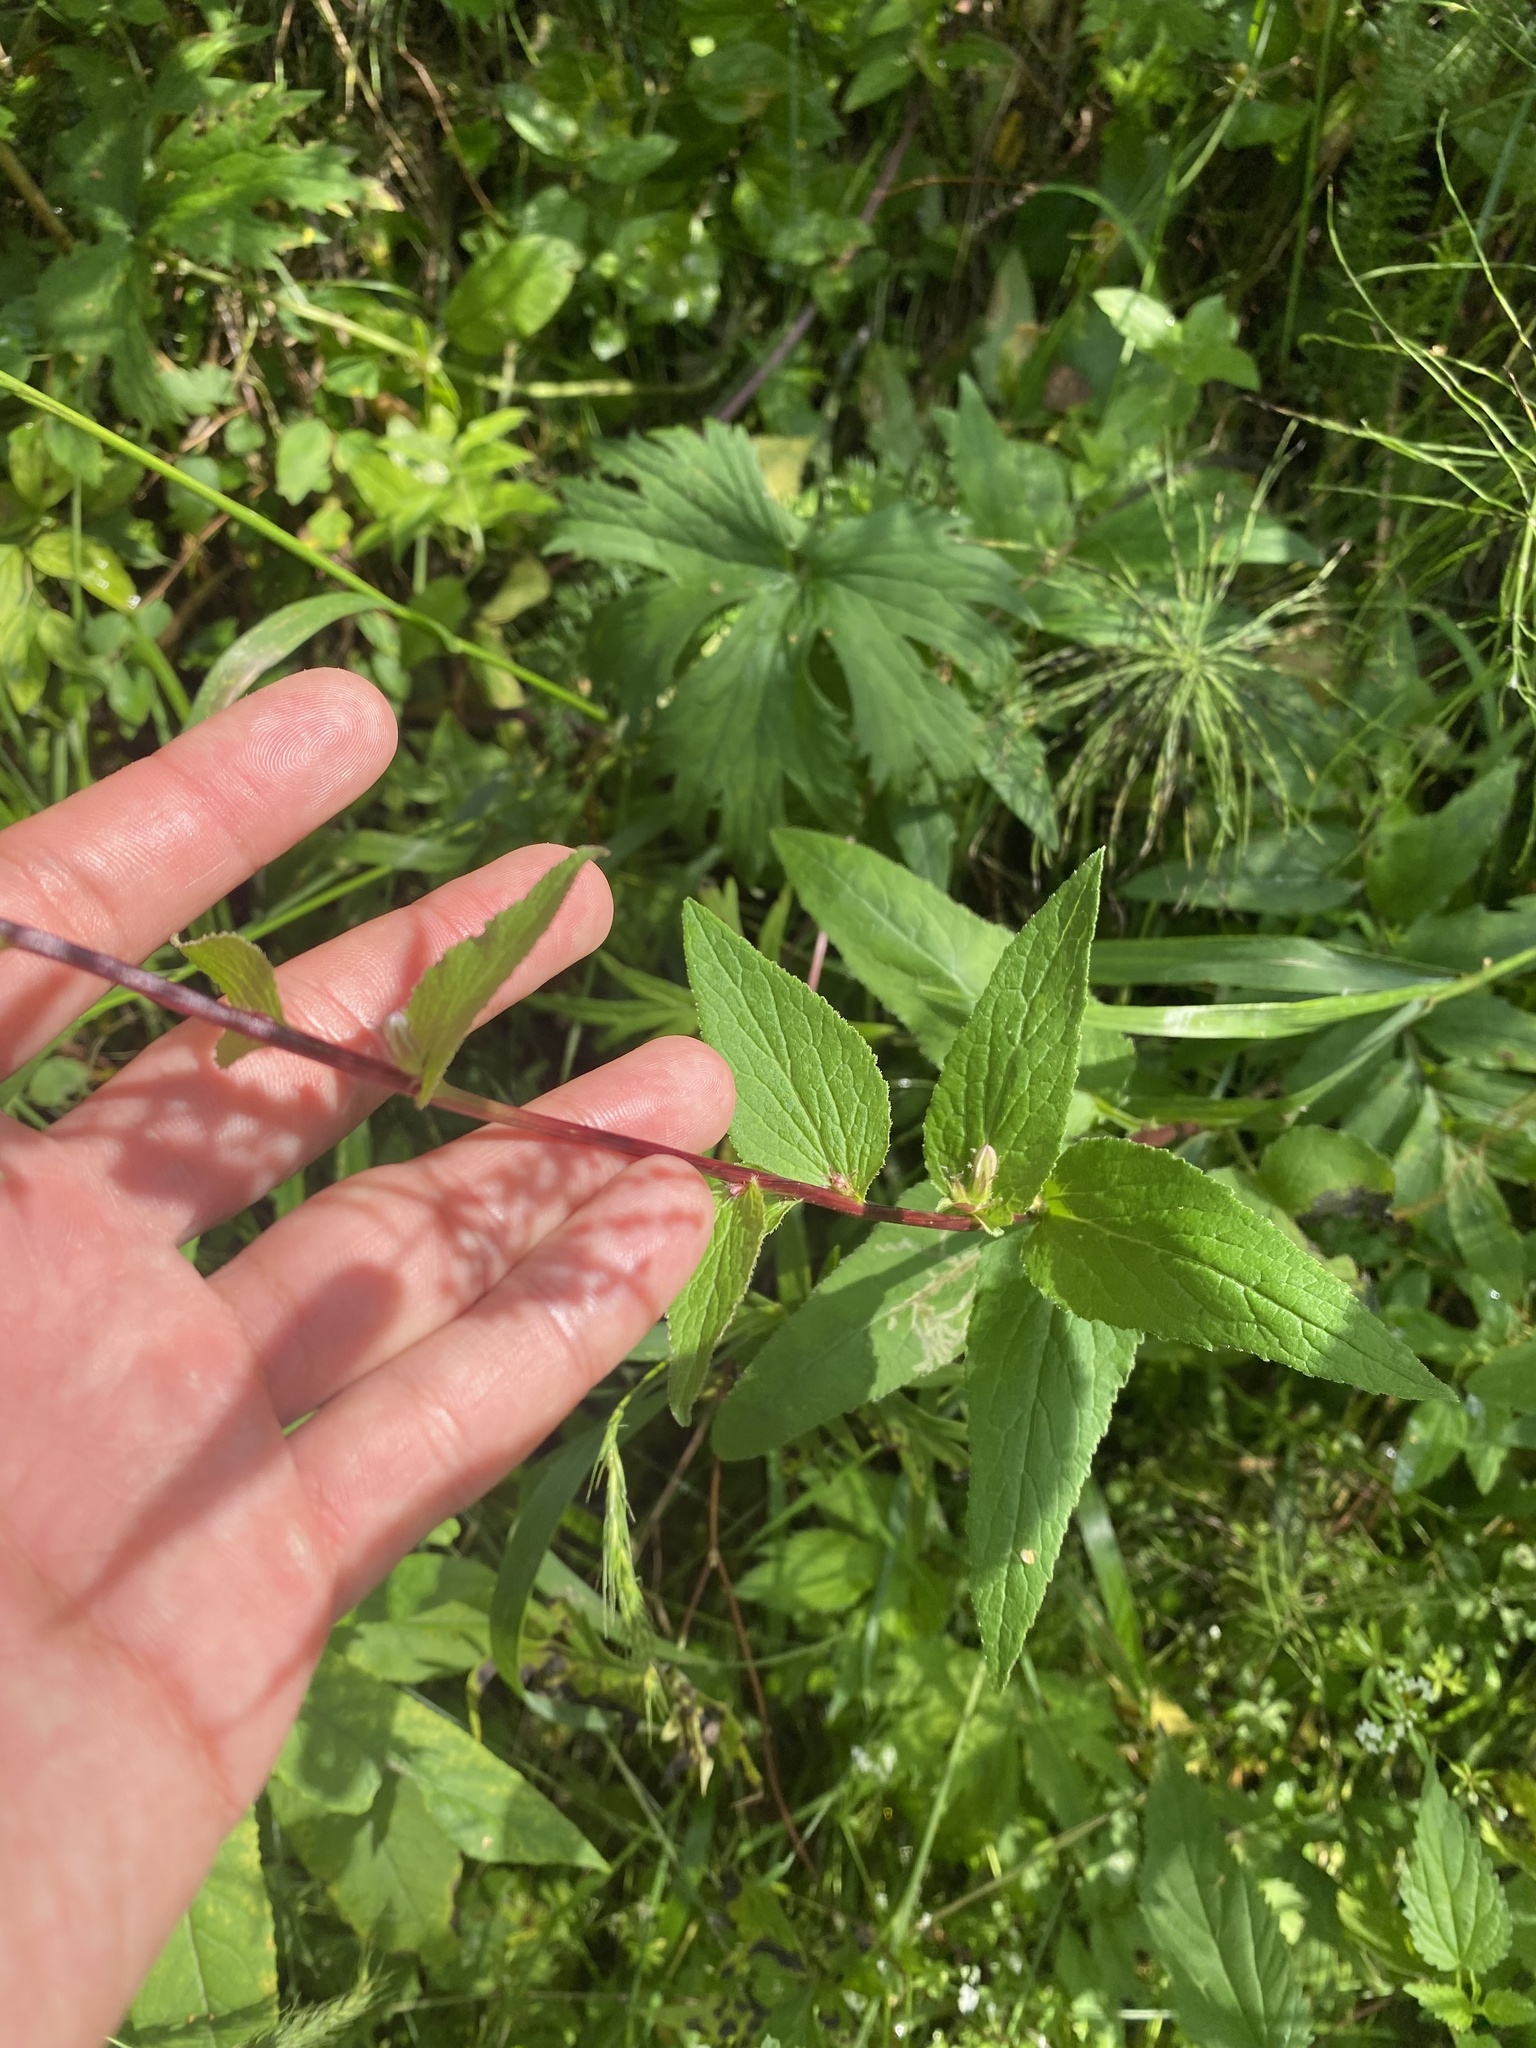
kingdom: Plantae
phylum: Tracheophyta
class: Magnoliopsida
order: Asterales
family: Campanulaceae
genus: Campanula
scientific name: Campanula glomerata
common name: Clustered bellflower
